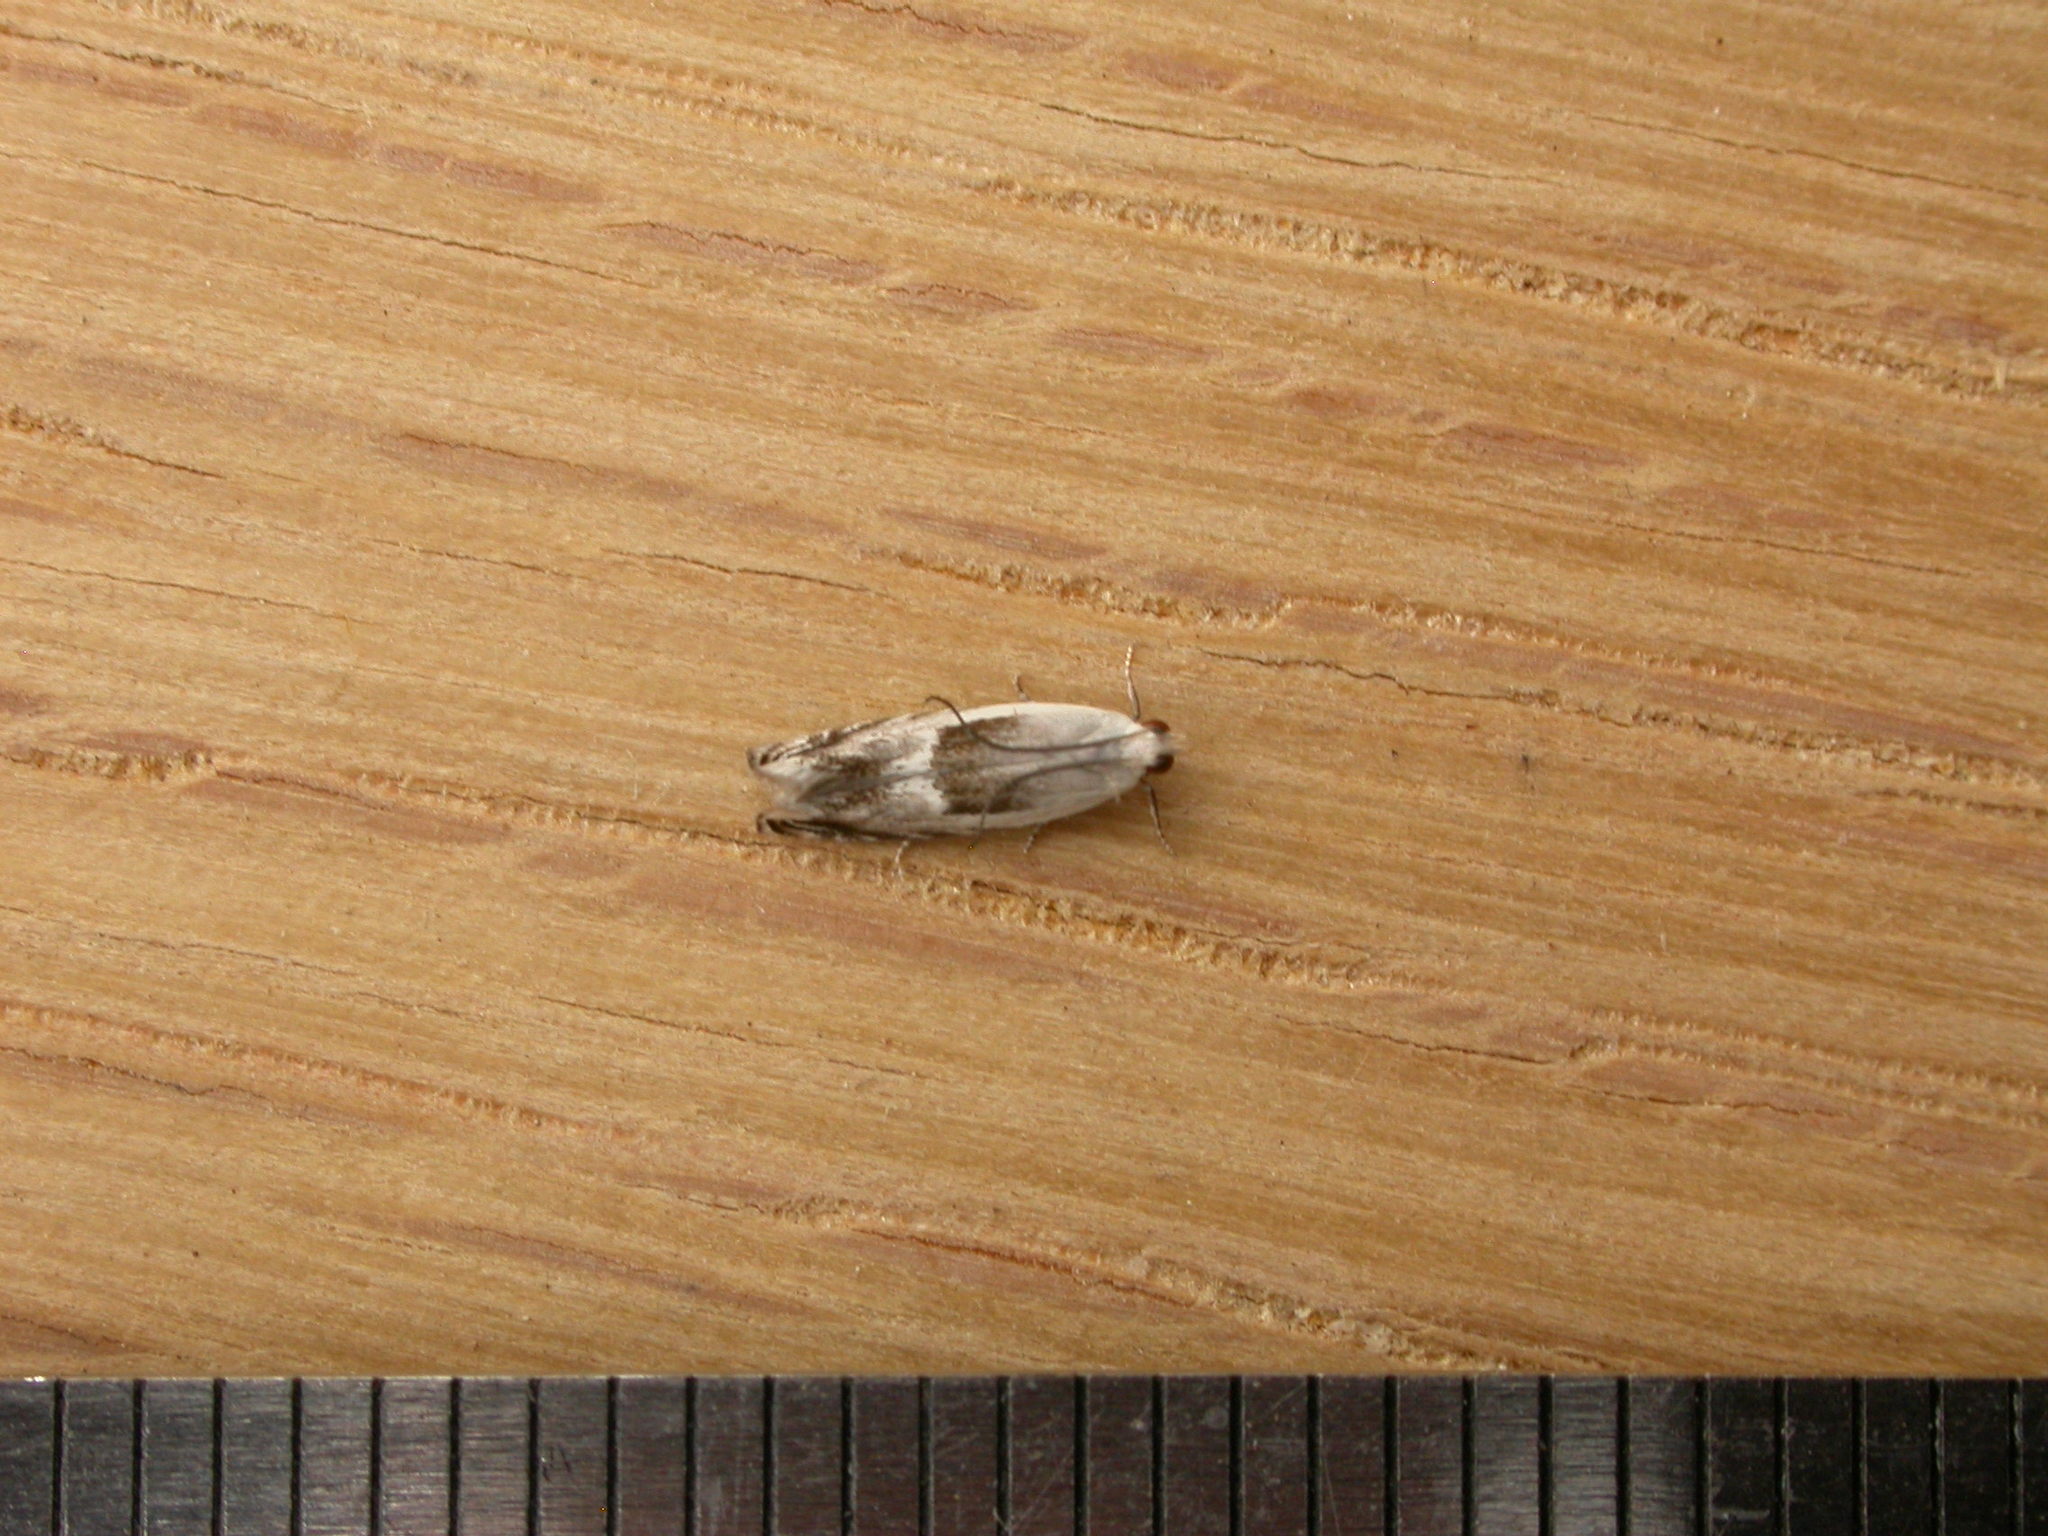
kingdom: Animalia
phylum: Arthropoda
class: Insecta
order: Lepidoptera
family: Gelechiidae
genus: Ardozyga
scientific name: Ardozyga Epibrontis hemichlaena
